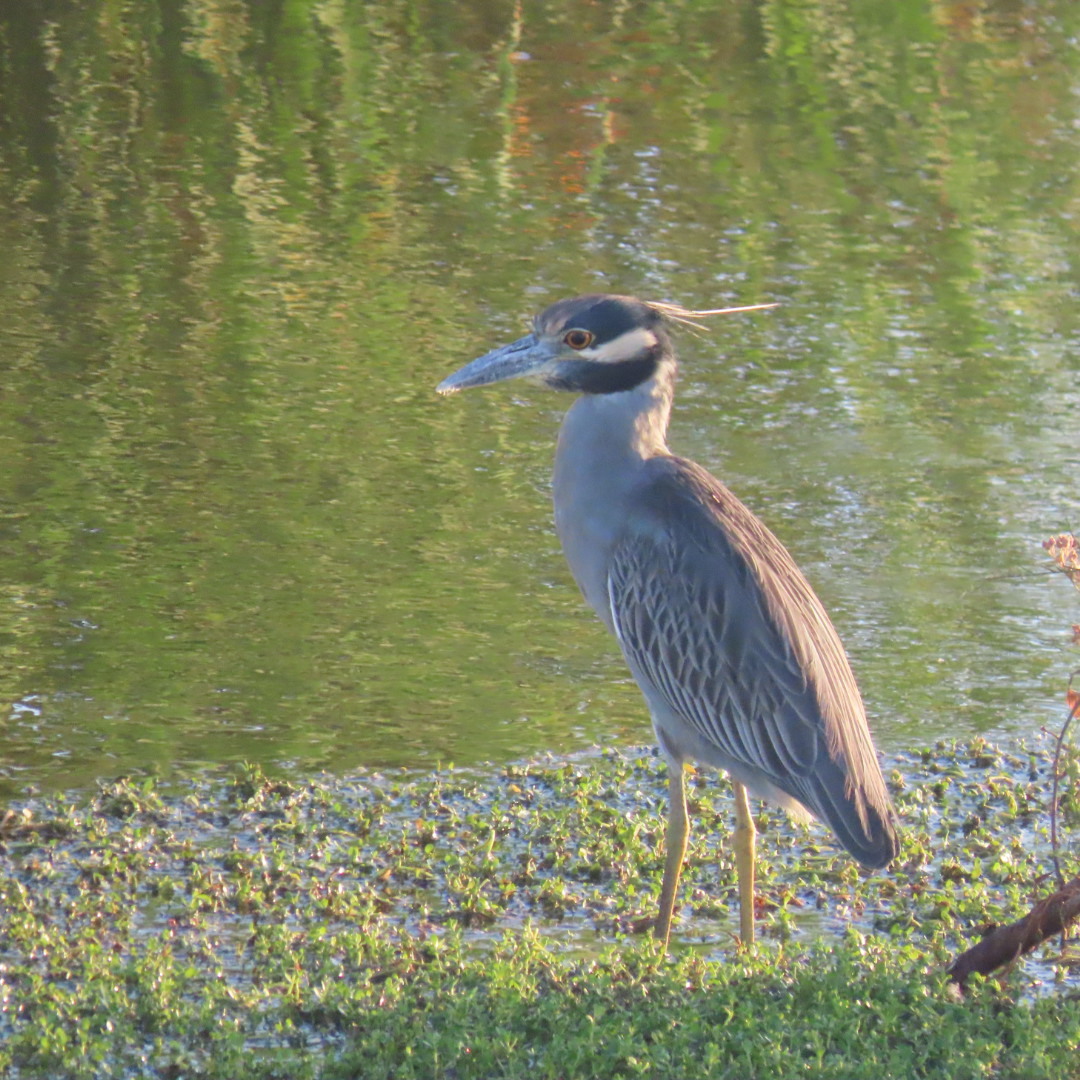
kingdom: Animalia
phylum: Chordata
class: Aves
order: Pelecaniformes
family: Ardeidae
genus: Nyctanassa
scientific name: Nyctanassa violacea
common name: Yellow-crowned night heron
